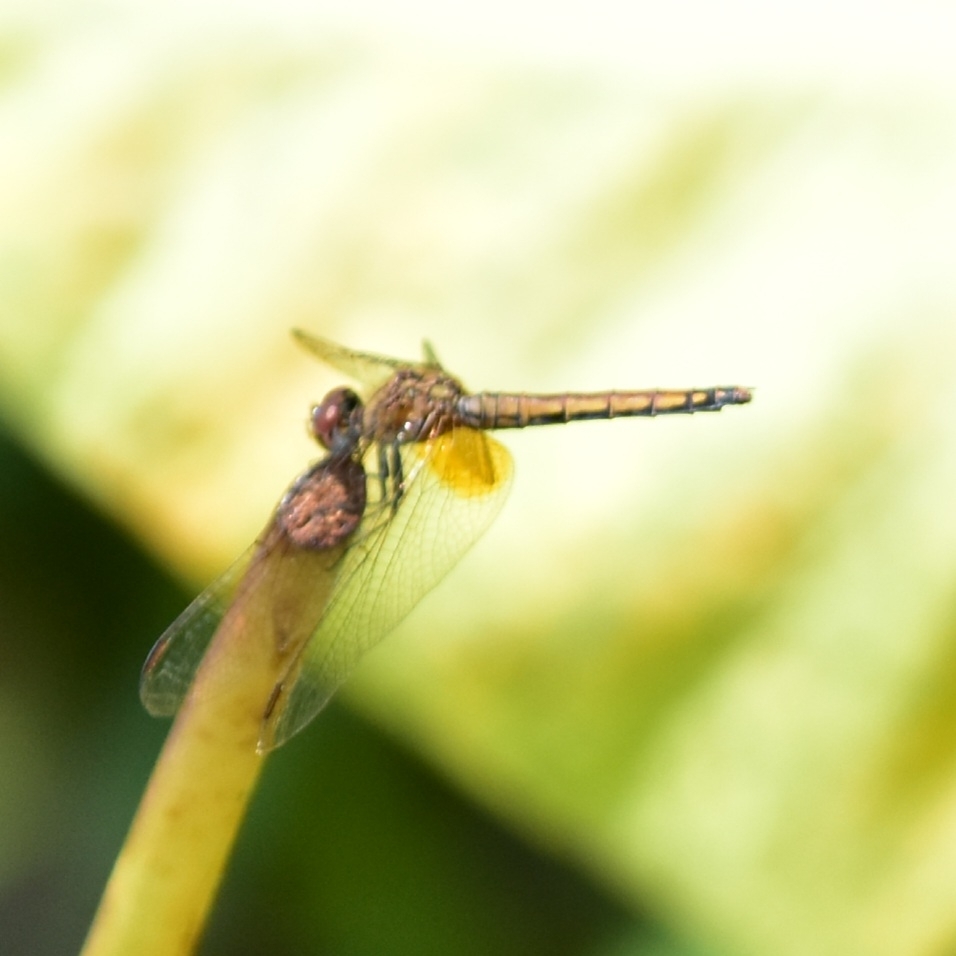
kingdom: Animalia
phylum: Arthropoda
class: Insecta
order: Odonata
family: Libellulidae
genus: Trithemis
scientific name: Trithemis aurora
